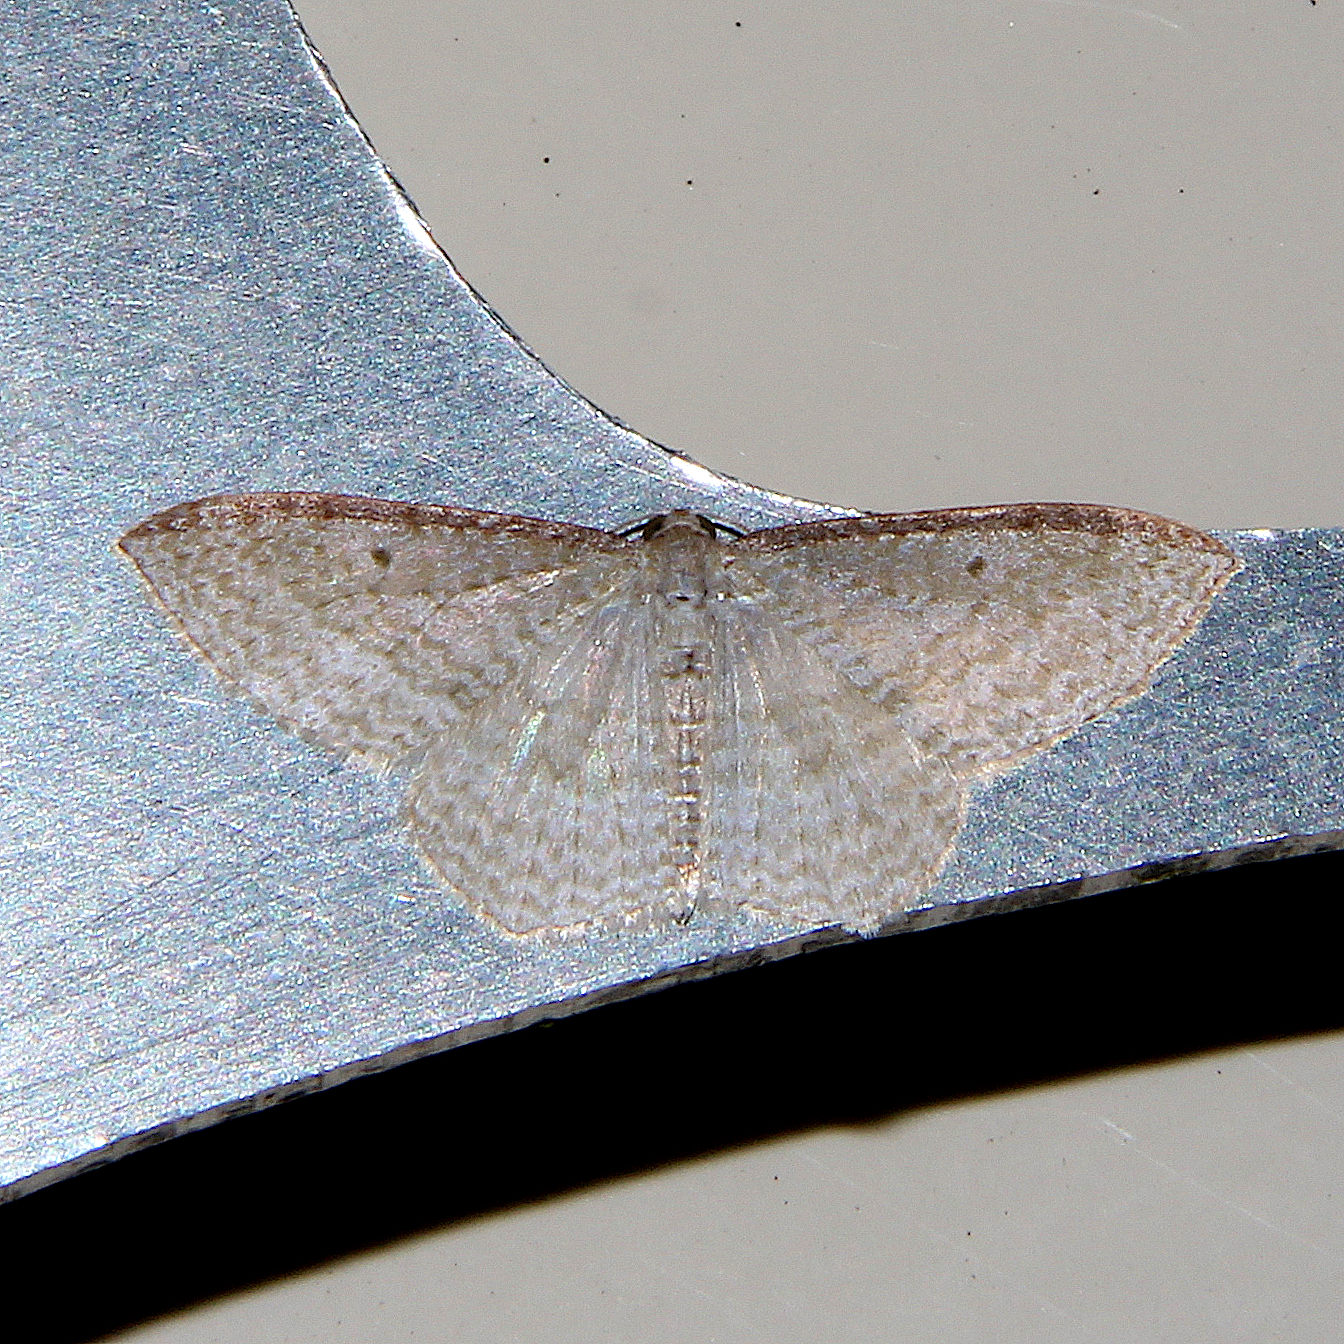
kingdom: Animalia
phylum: Arthropoda
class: Insecta
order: Lepidoptera
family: Geometridae
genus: Poecilasthena
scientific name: Poecilasthena pulchraria
